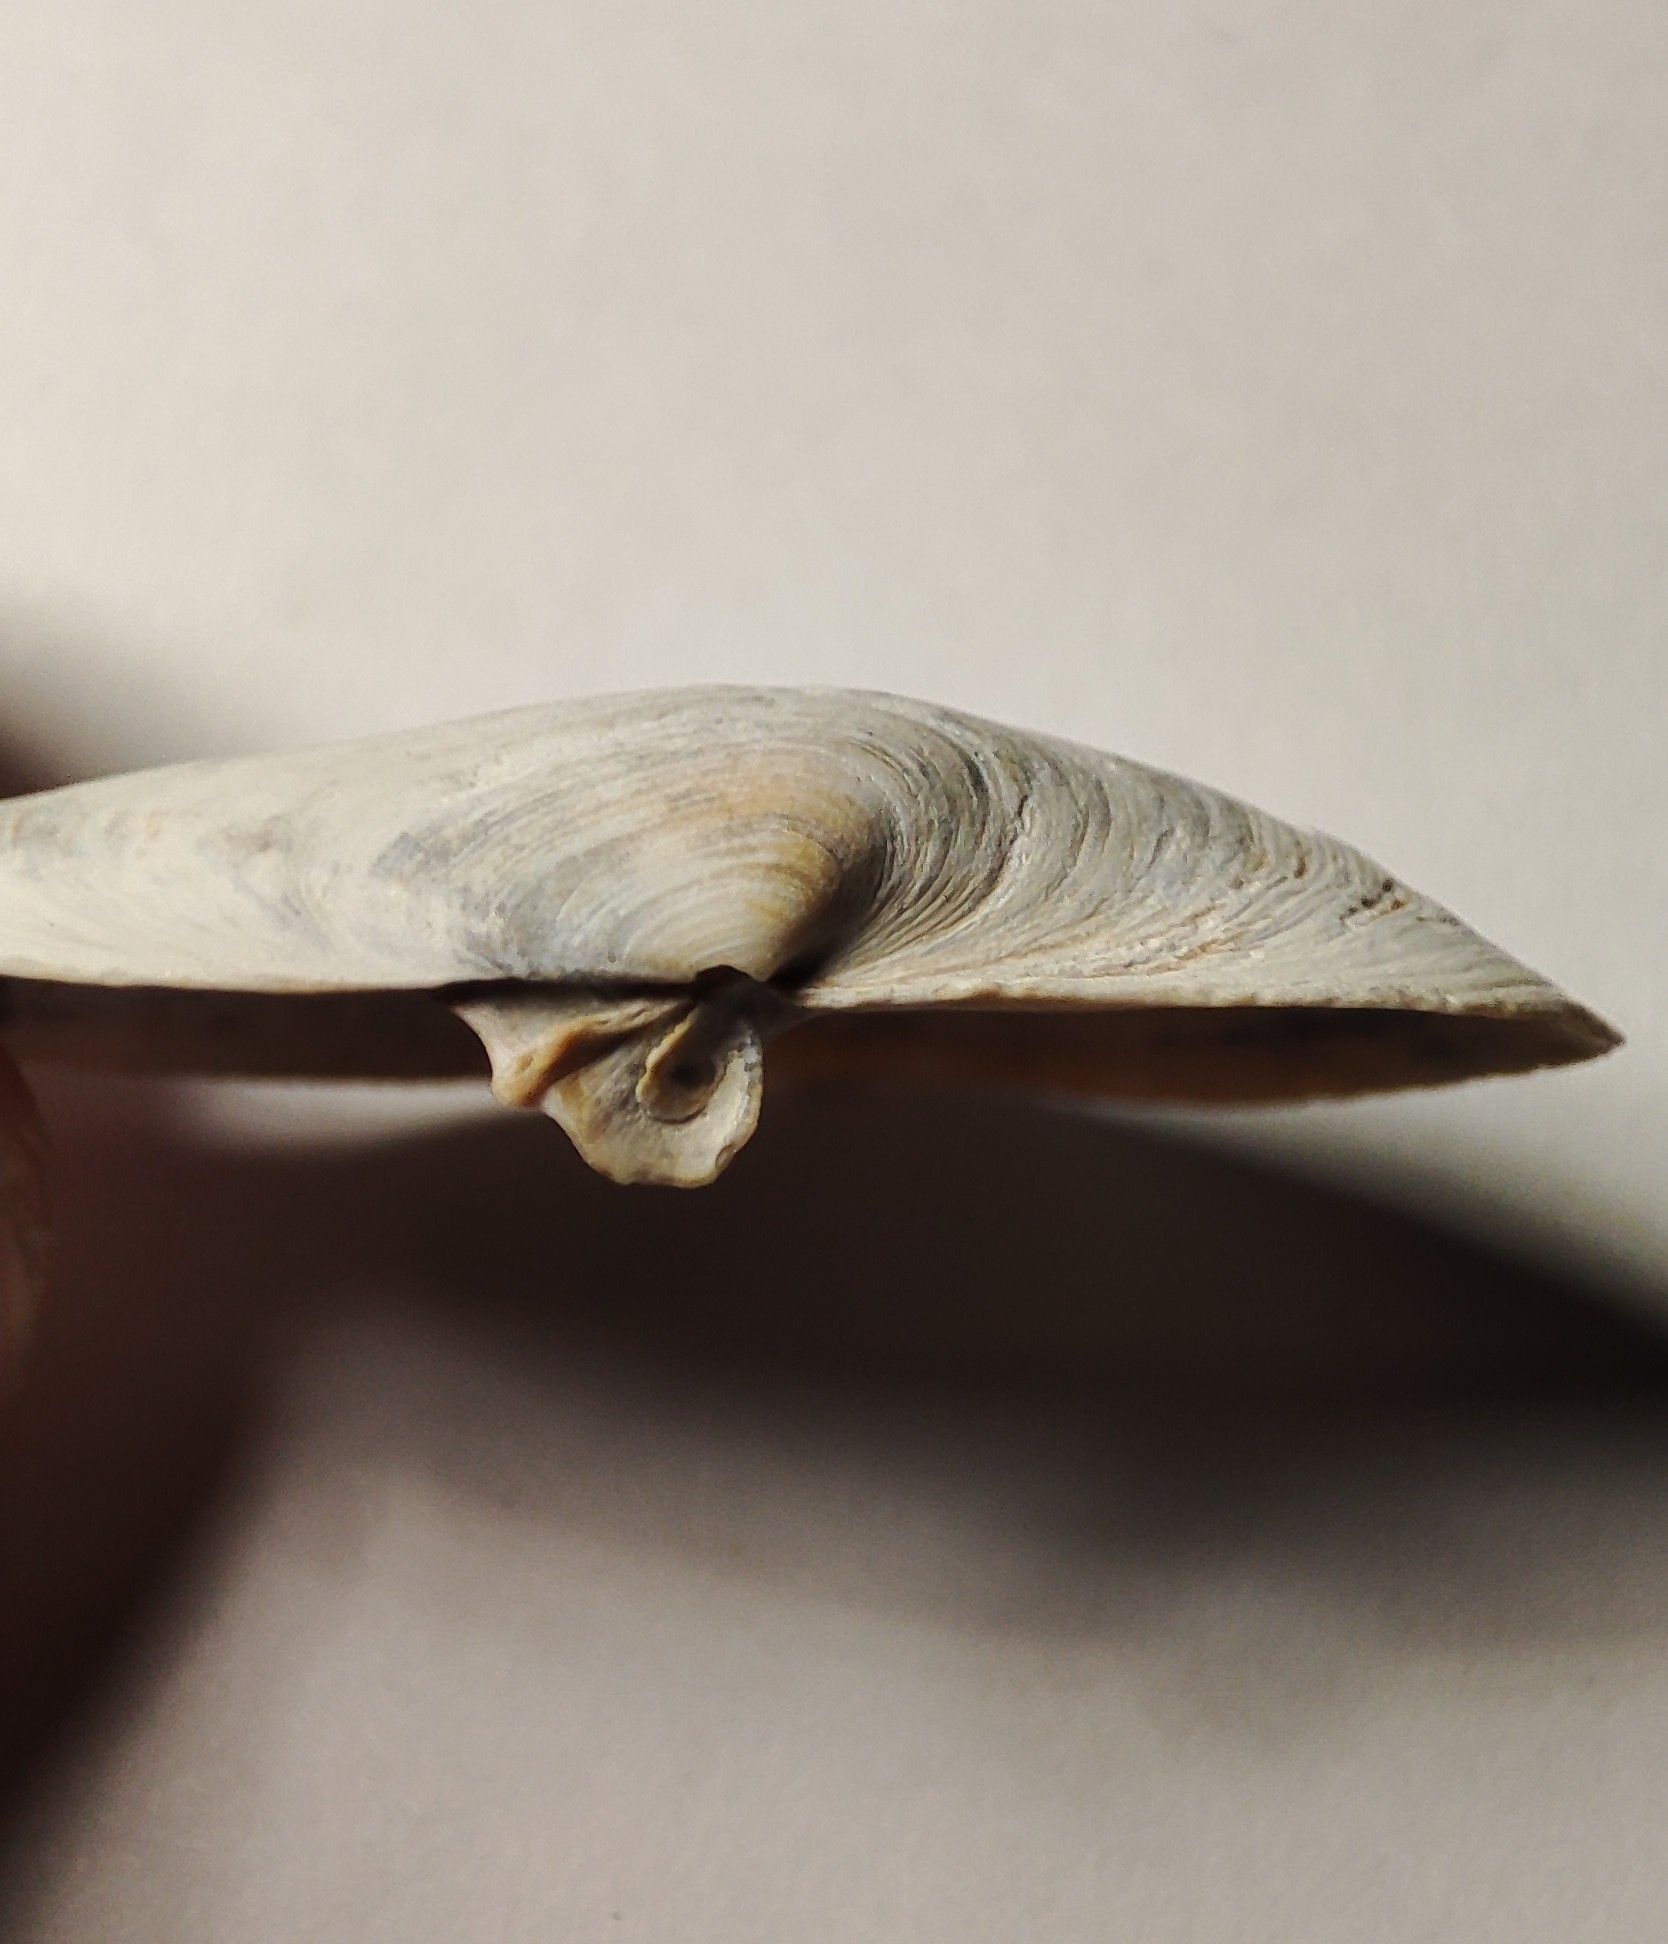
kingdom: Animalia
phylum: Mollusca
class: Bivalvia
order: Myida
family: Myidae
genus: Mya
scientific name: Mya arenaria
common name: Soft-shelled clam
